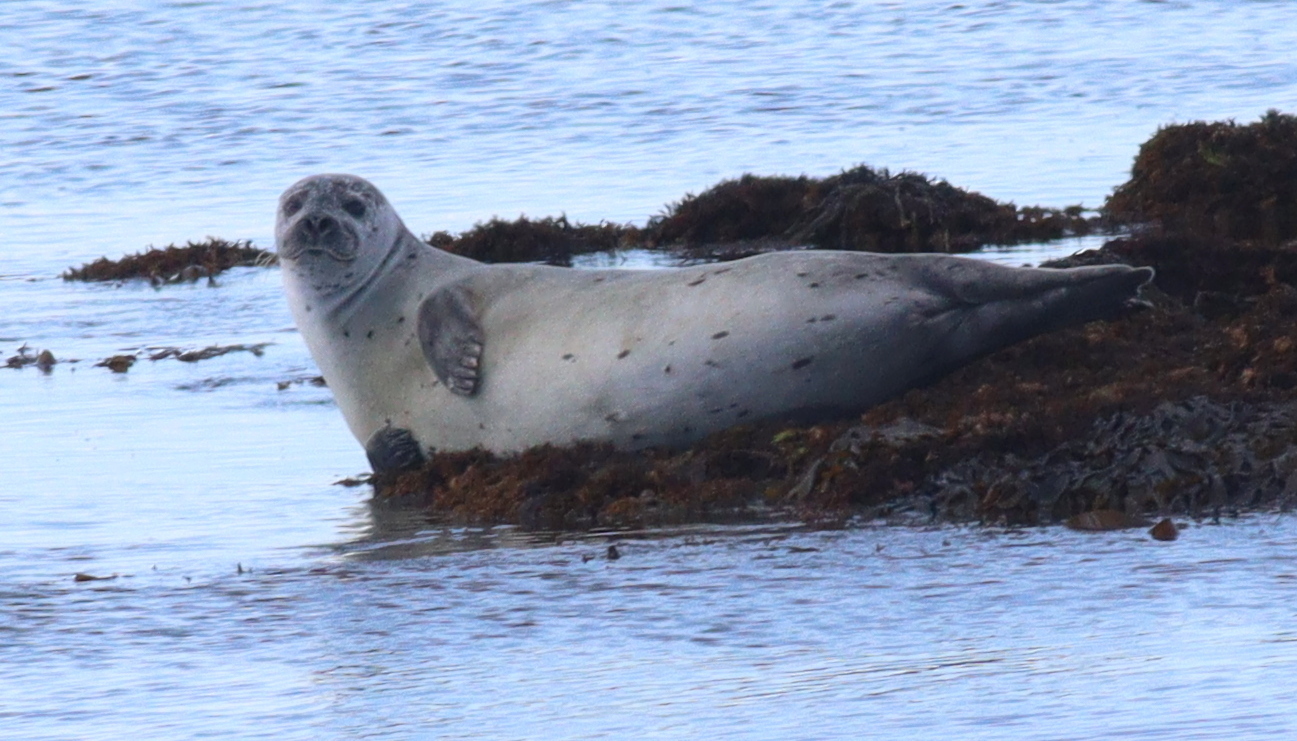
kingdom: Animalia
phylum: Chordata
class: Mammalia
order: Carnivora
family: Phocidae
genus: Phoca
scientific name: Phoca vitulina
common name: Harbor seal
